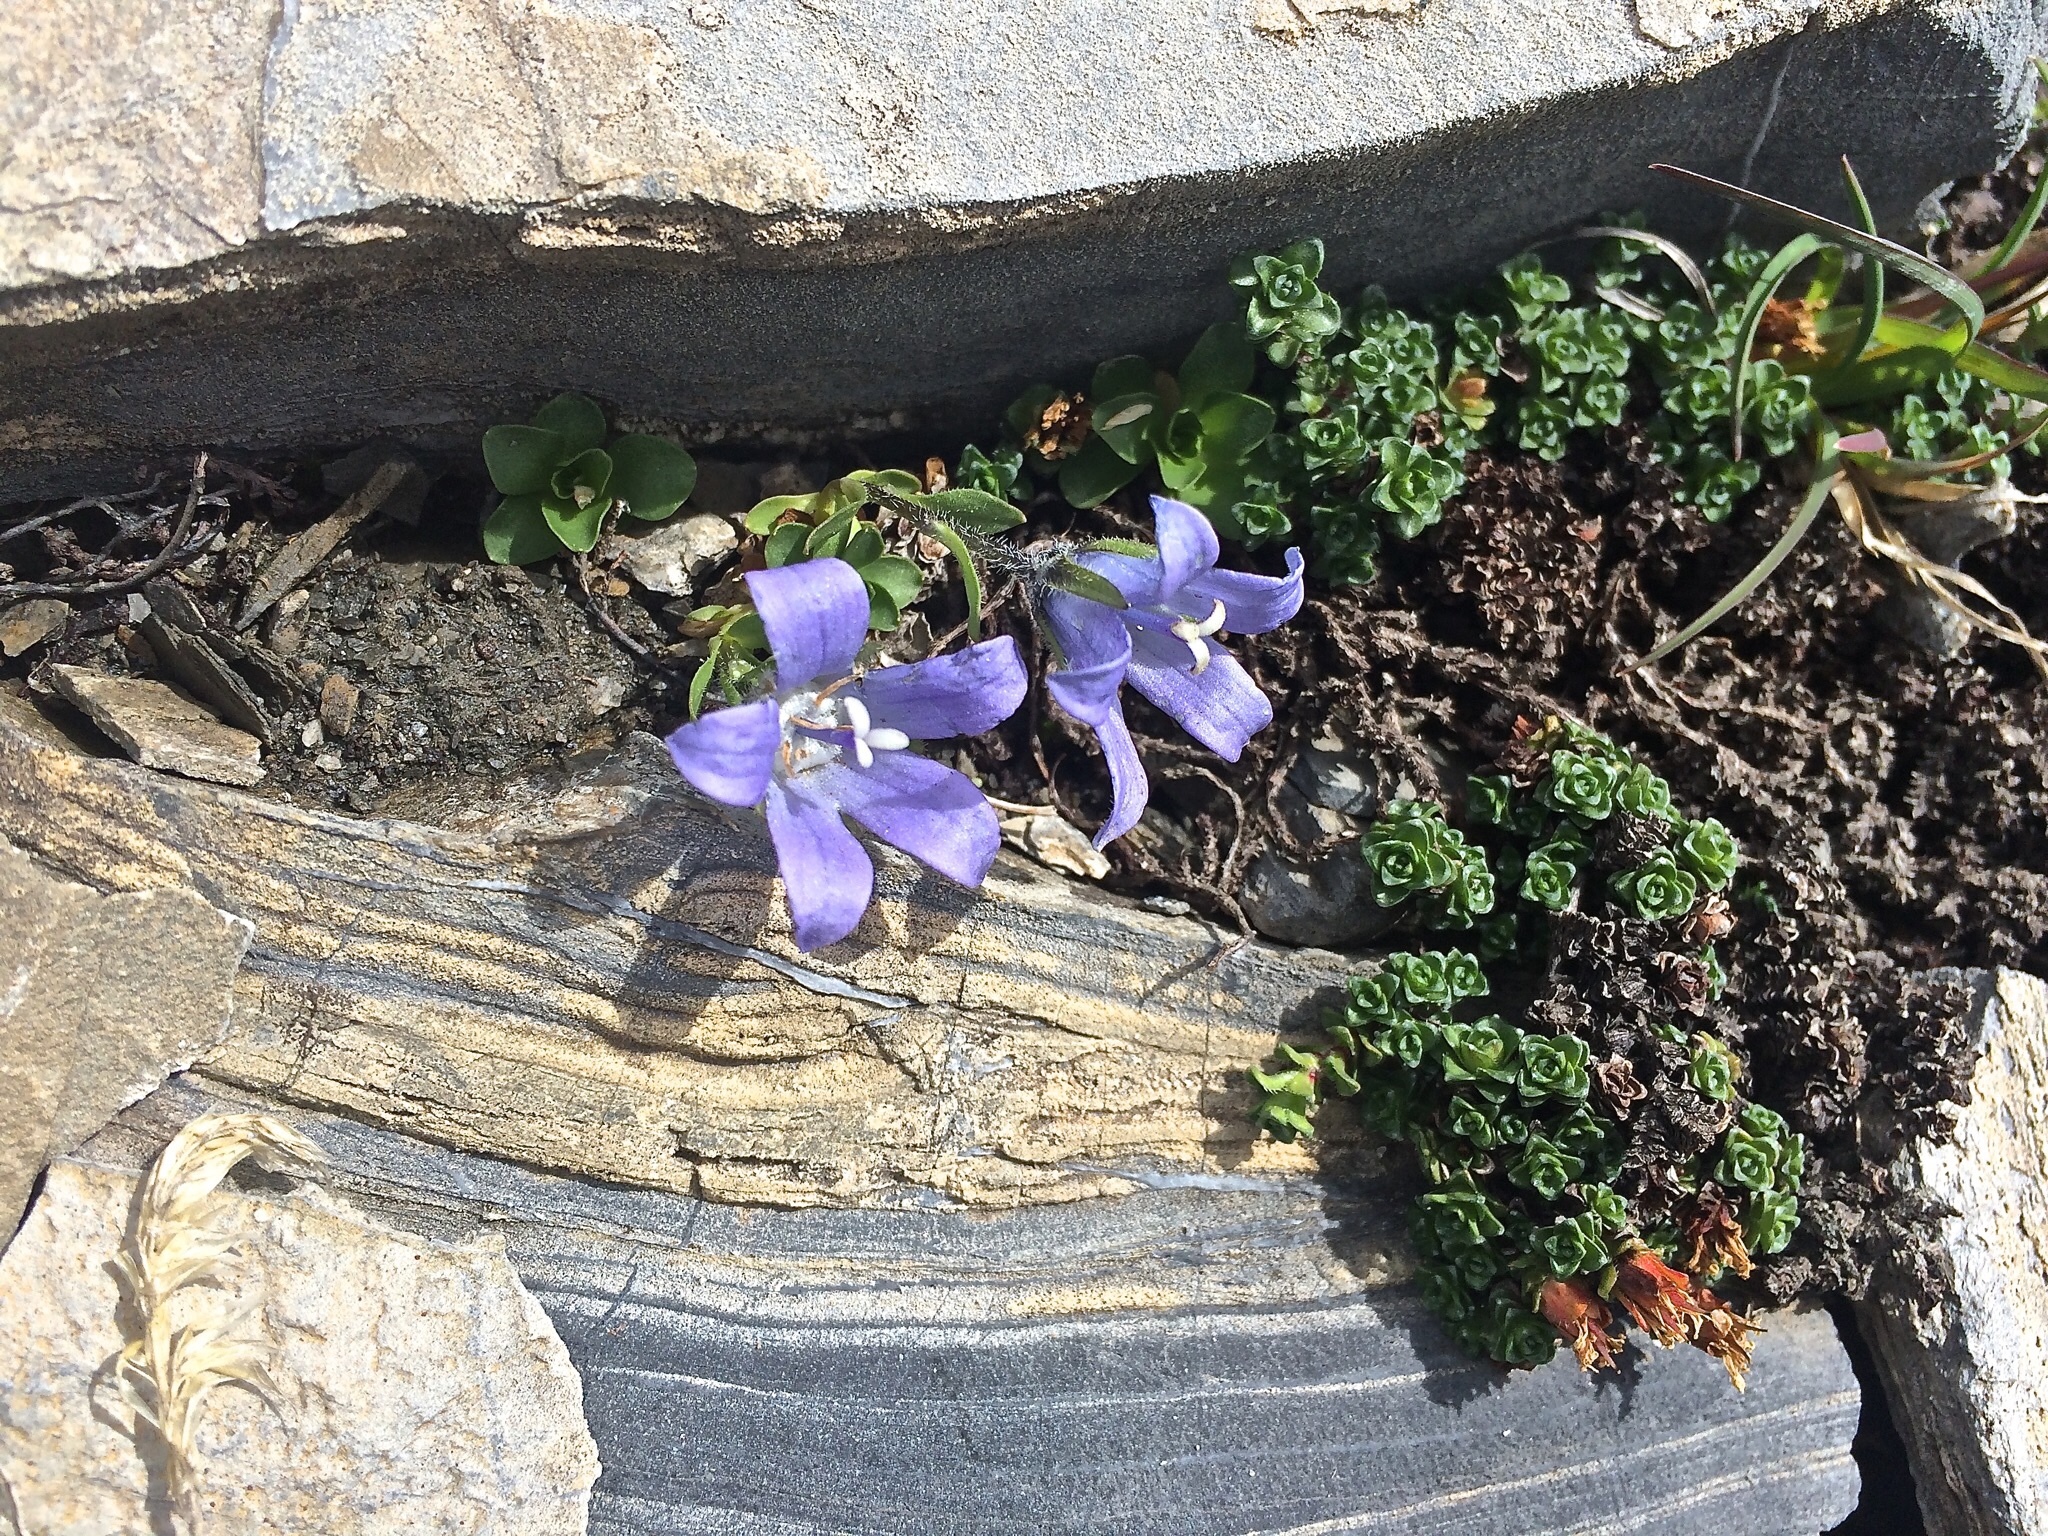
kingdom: Plantae
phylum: Tracheophyta
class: Magnoliopsida
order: Asterales
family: Campanulaceae
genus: Campanula
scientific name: Campanula cenisia
